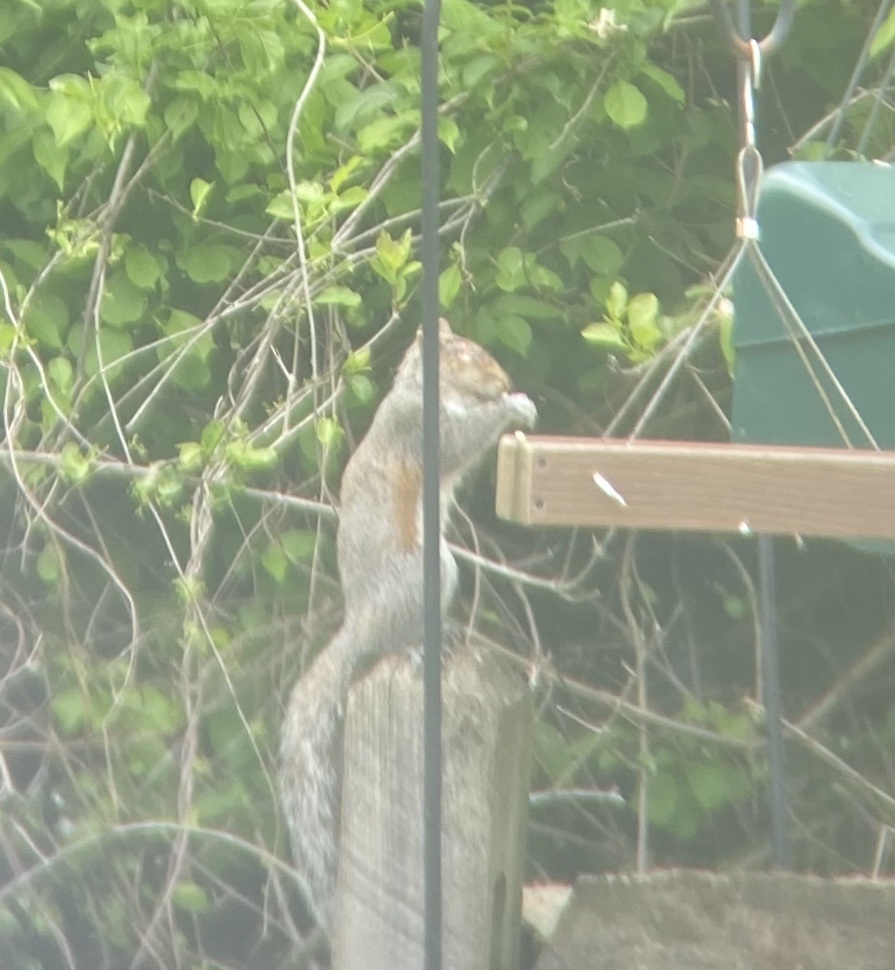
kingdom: Animalia
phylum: Chordata
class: Mammalia
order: Rodentia
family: Sciuridae
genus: Sciurus
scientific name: Sciurus carolinensis
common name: Eastern gray squirrel
